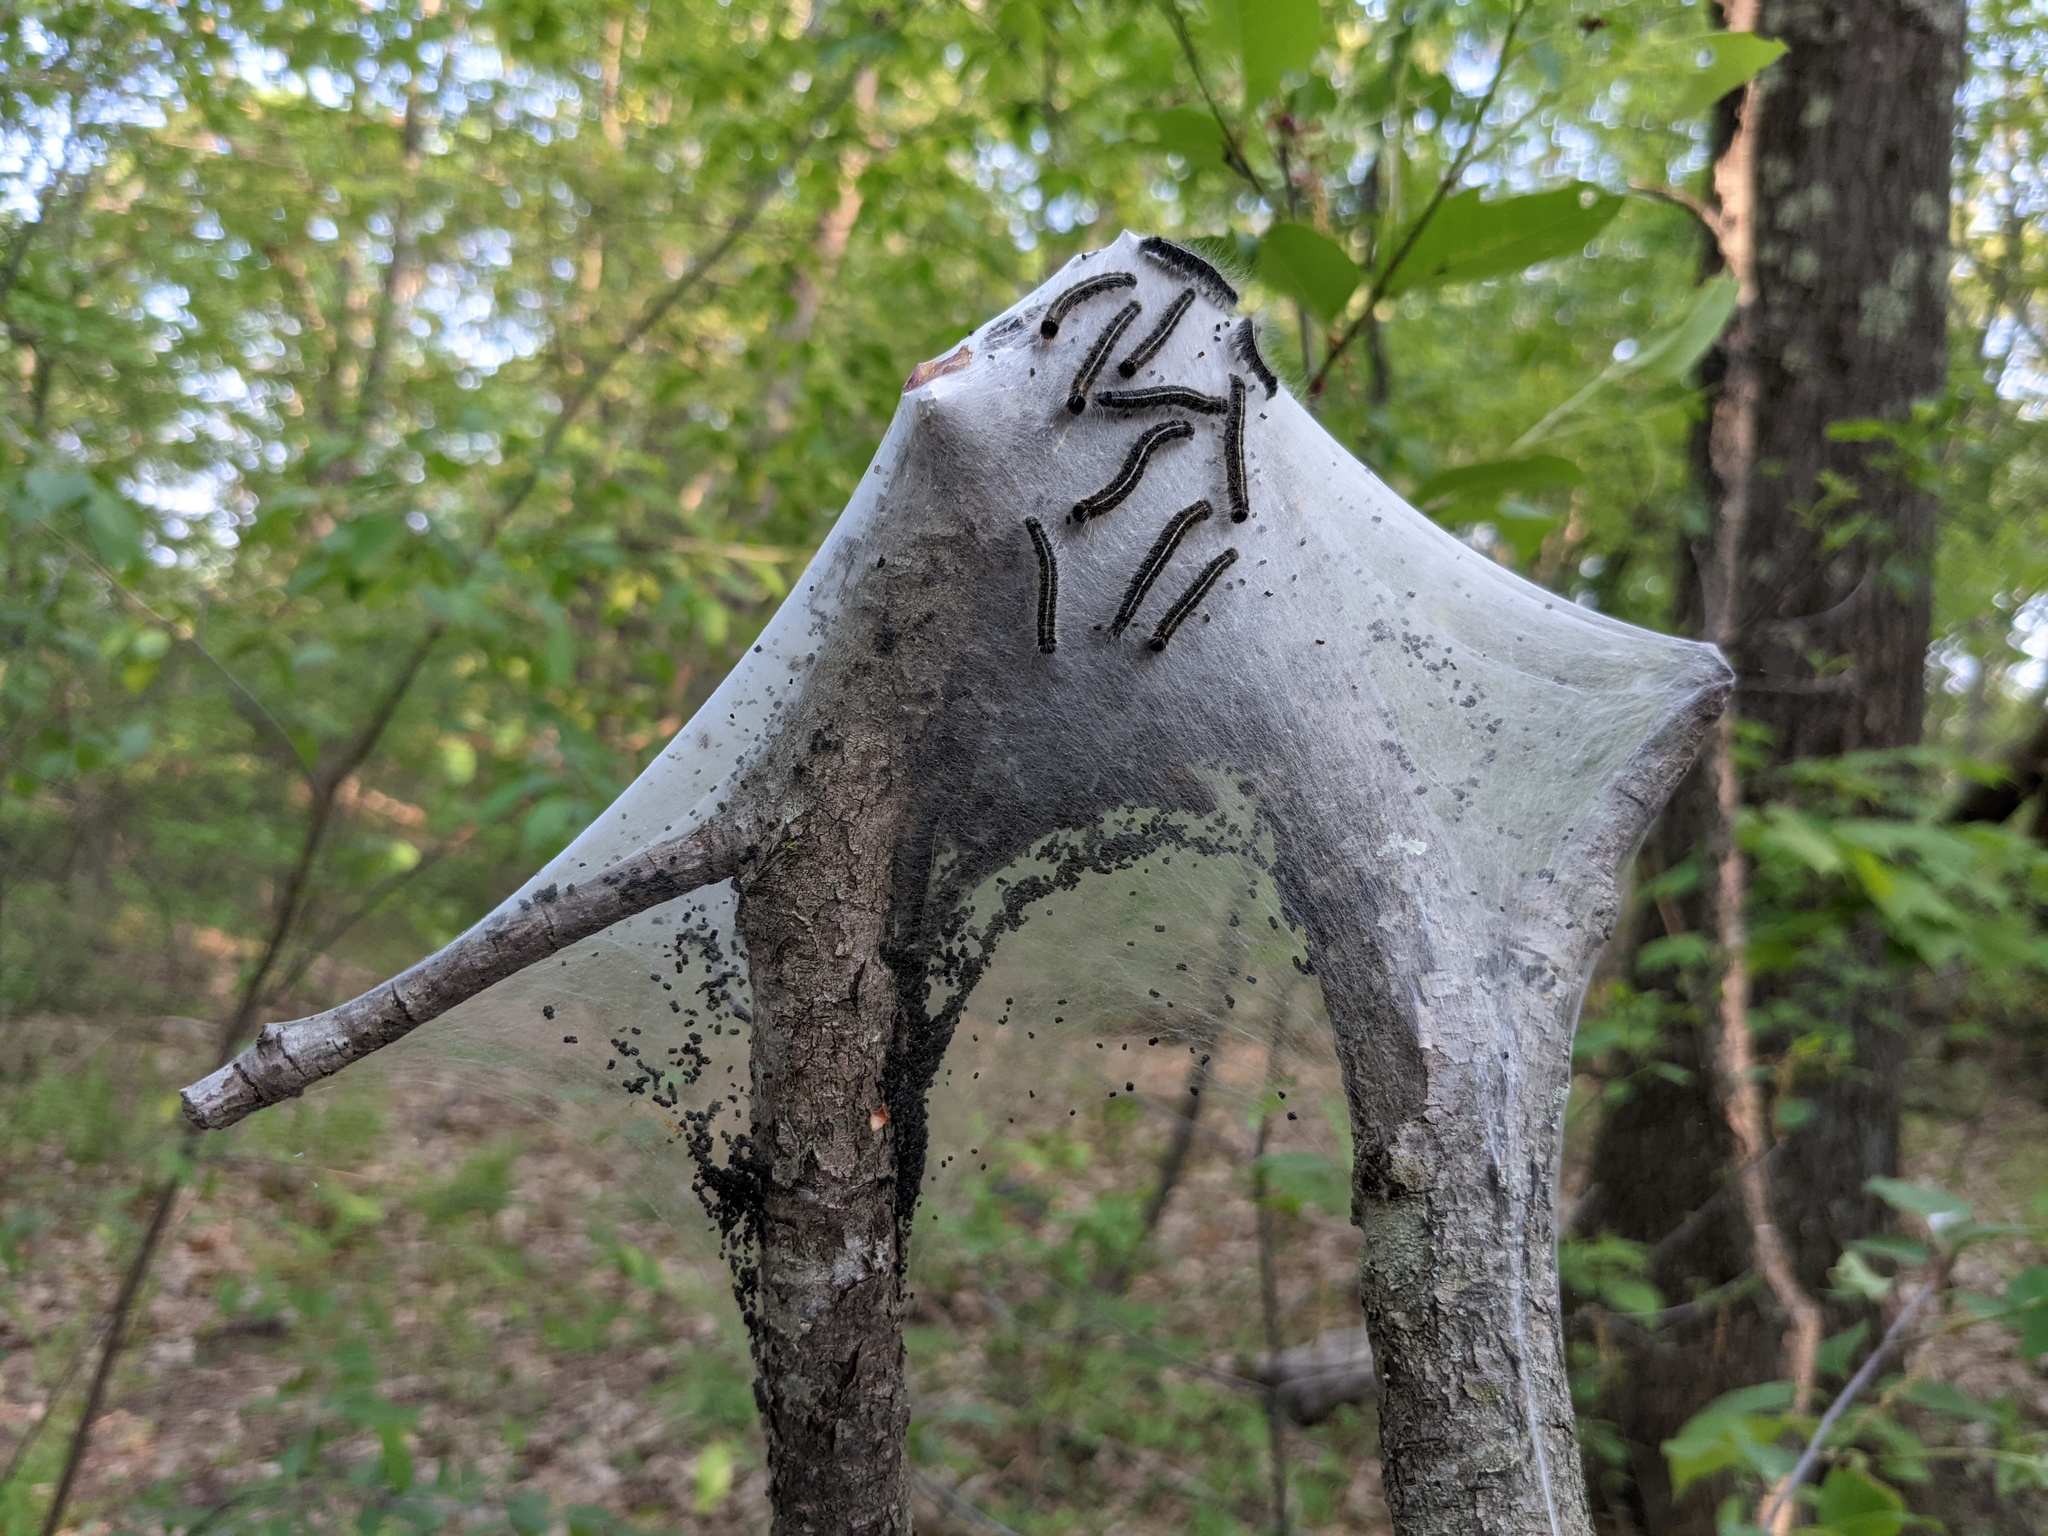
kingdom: Animalia
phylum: Arthropoda
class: Insecta
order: Lepidoptera
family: Lasiocampidae
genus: Malacosoma
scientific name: Malacosoma americana
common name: Eastern tent caterpillar moth
